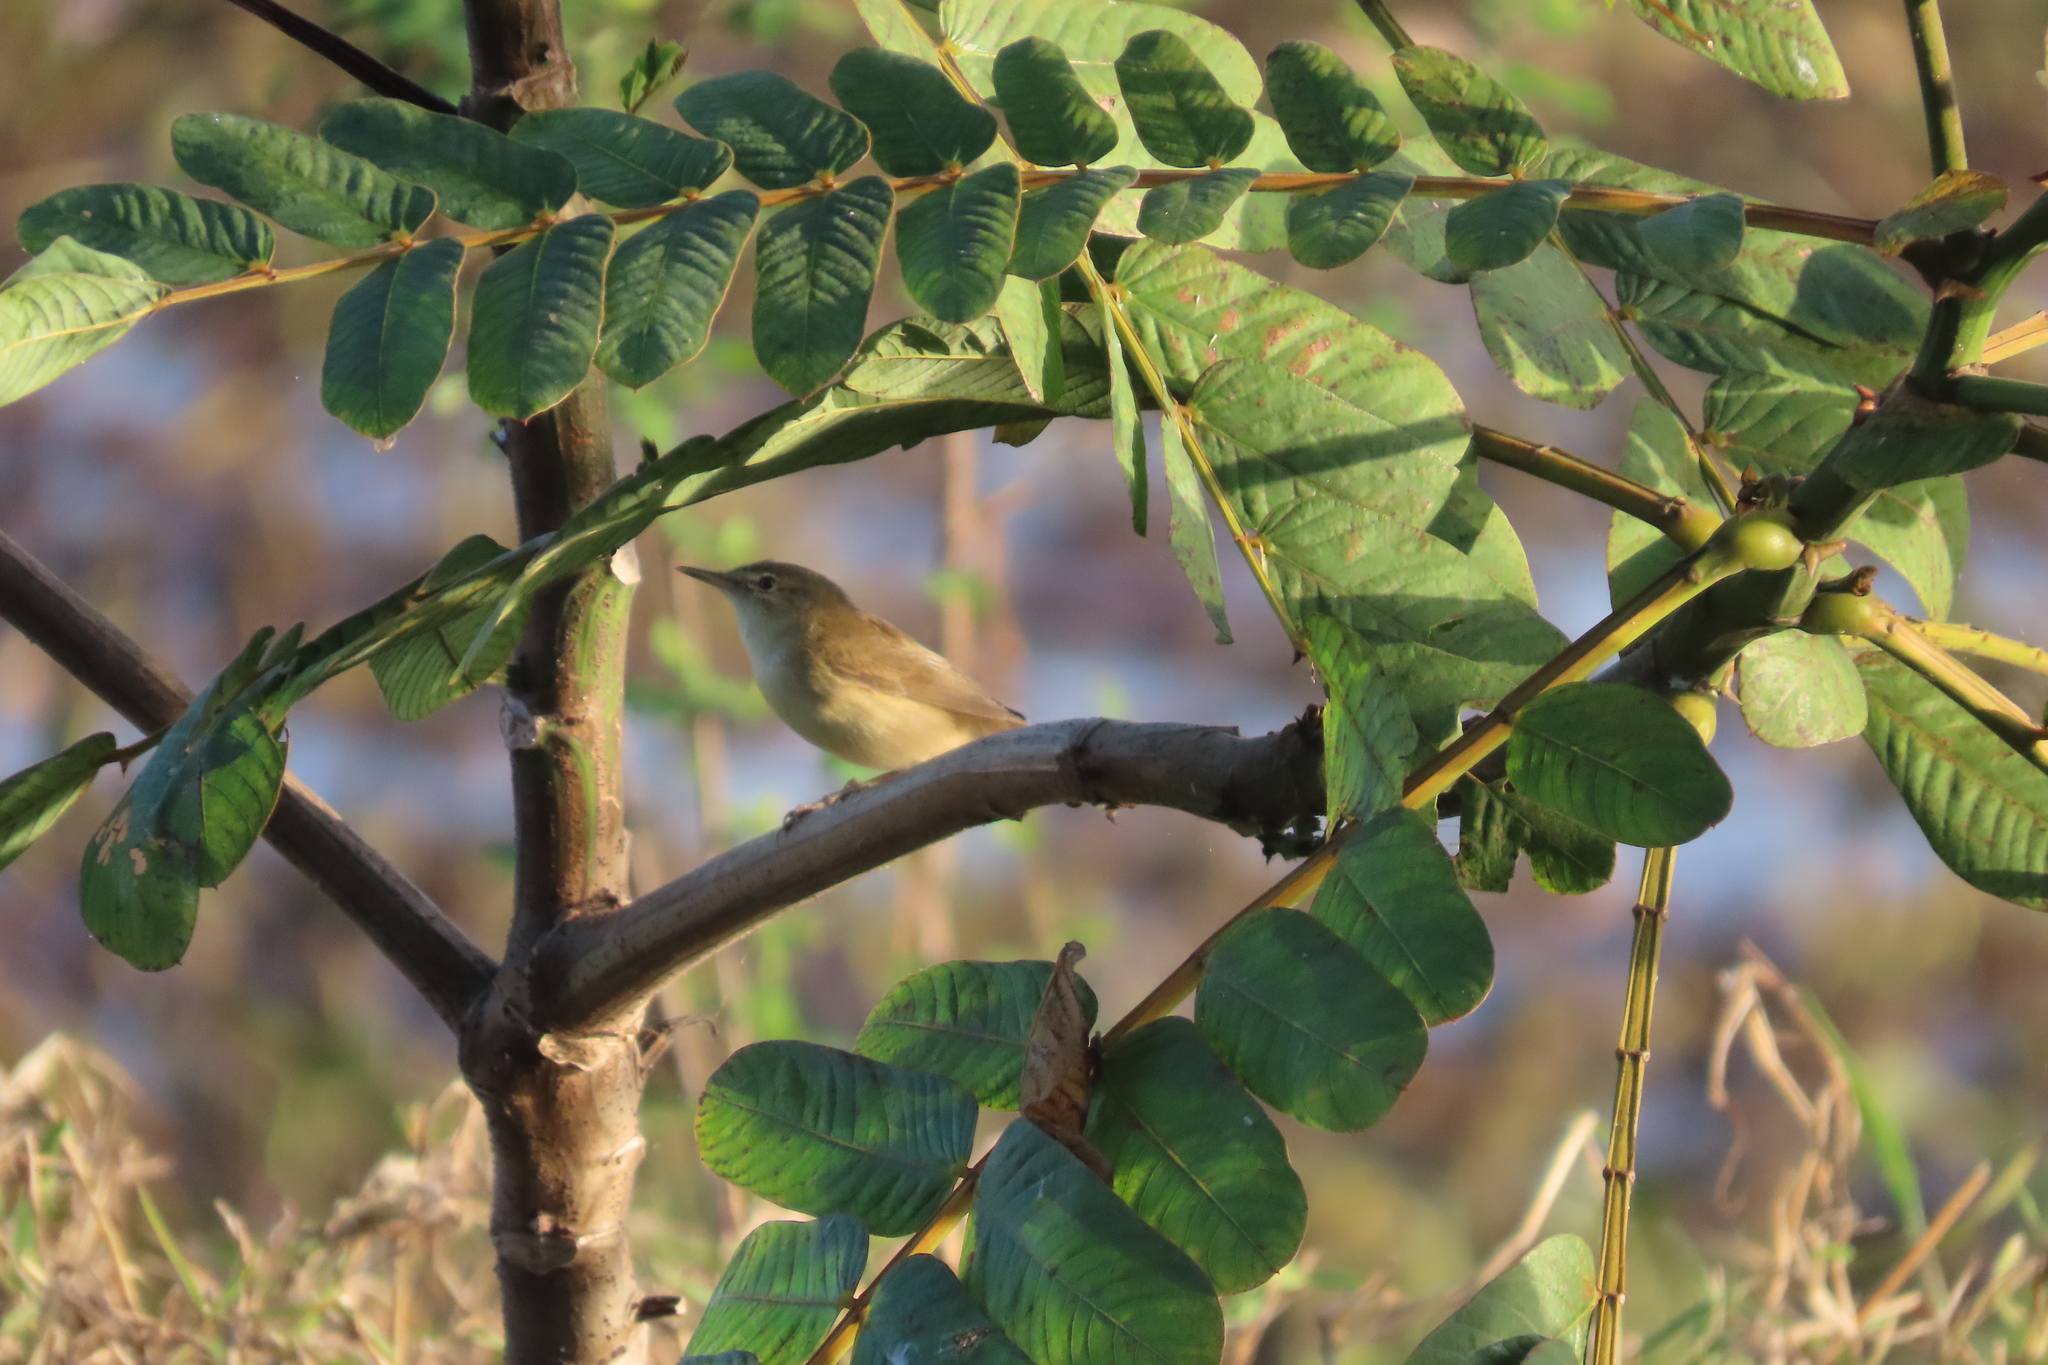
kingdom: Animalia
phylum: Chordata
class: Aves
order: Passeriformes
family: Acrocephalidae
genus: Acrocephalus
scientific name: Acrocephalus dumetorum
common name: Blyth's reed warbler
